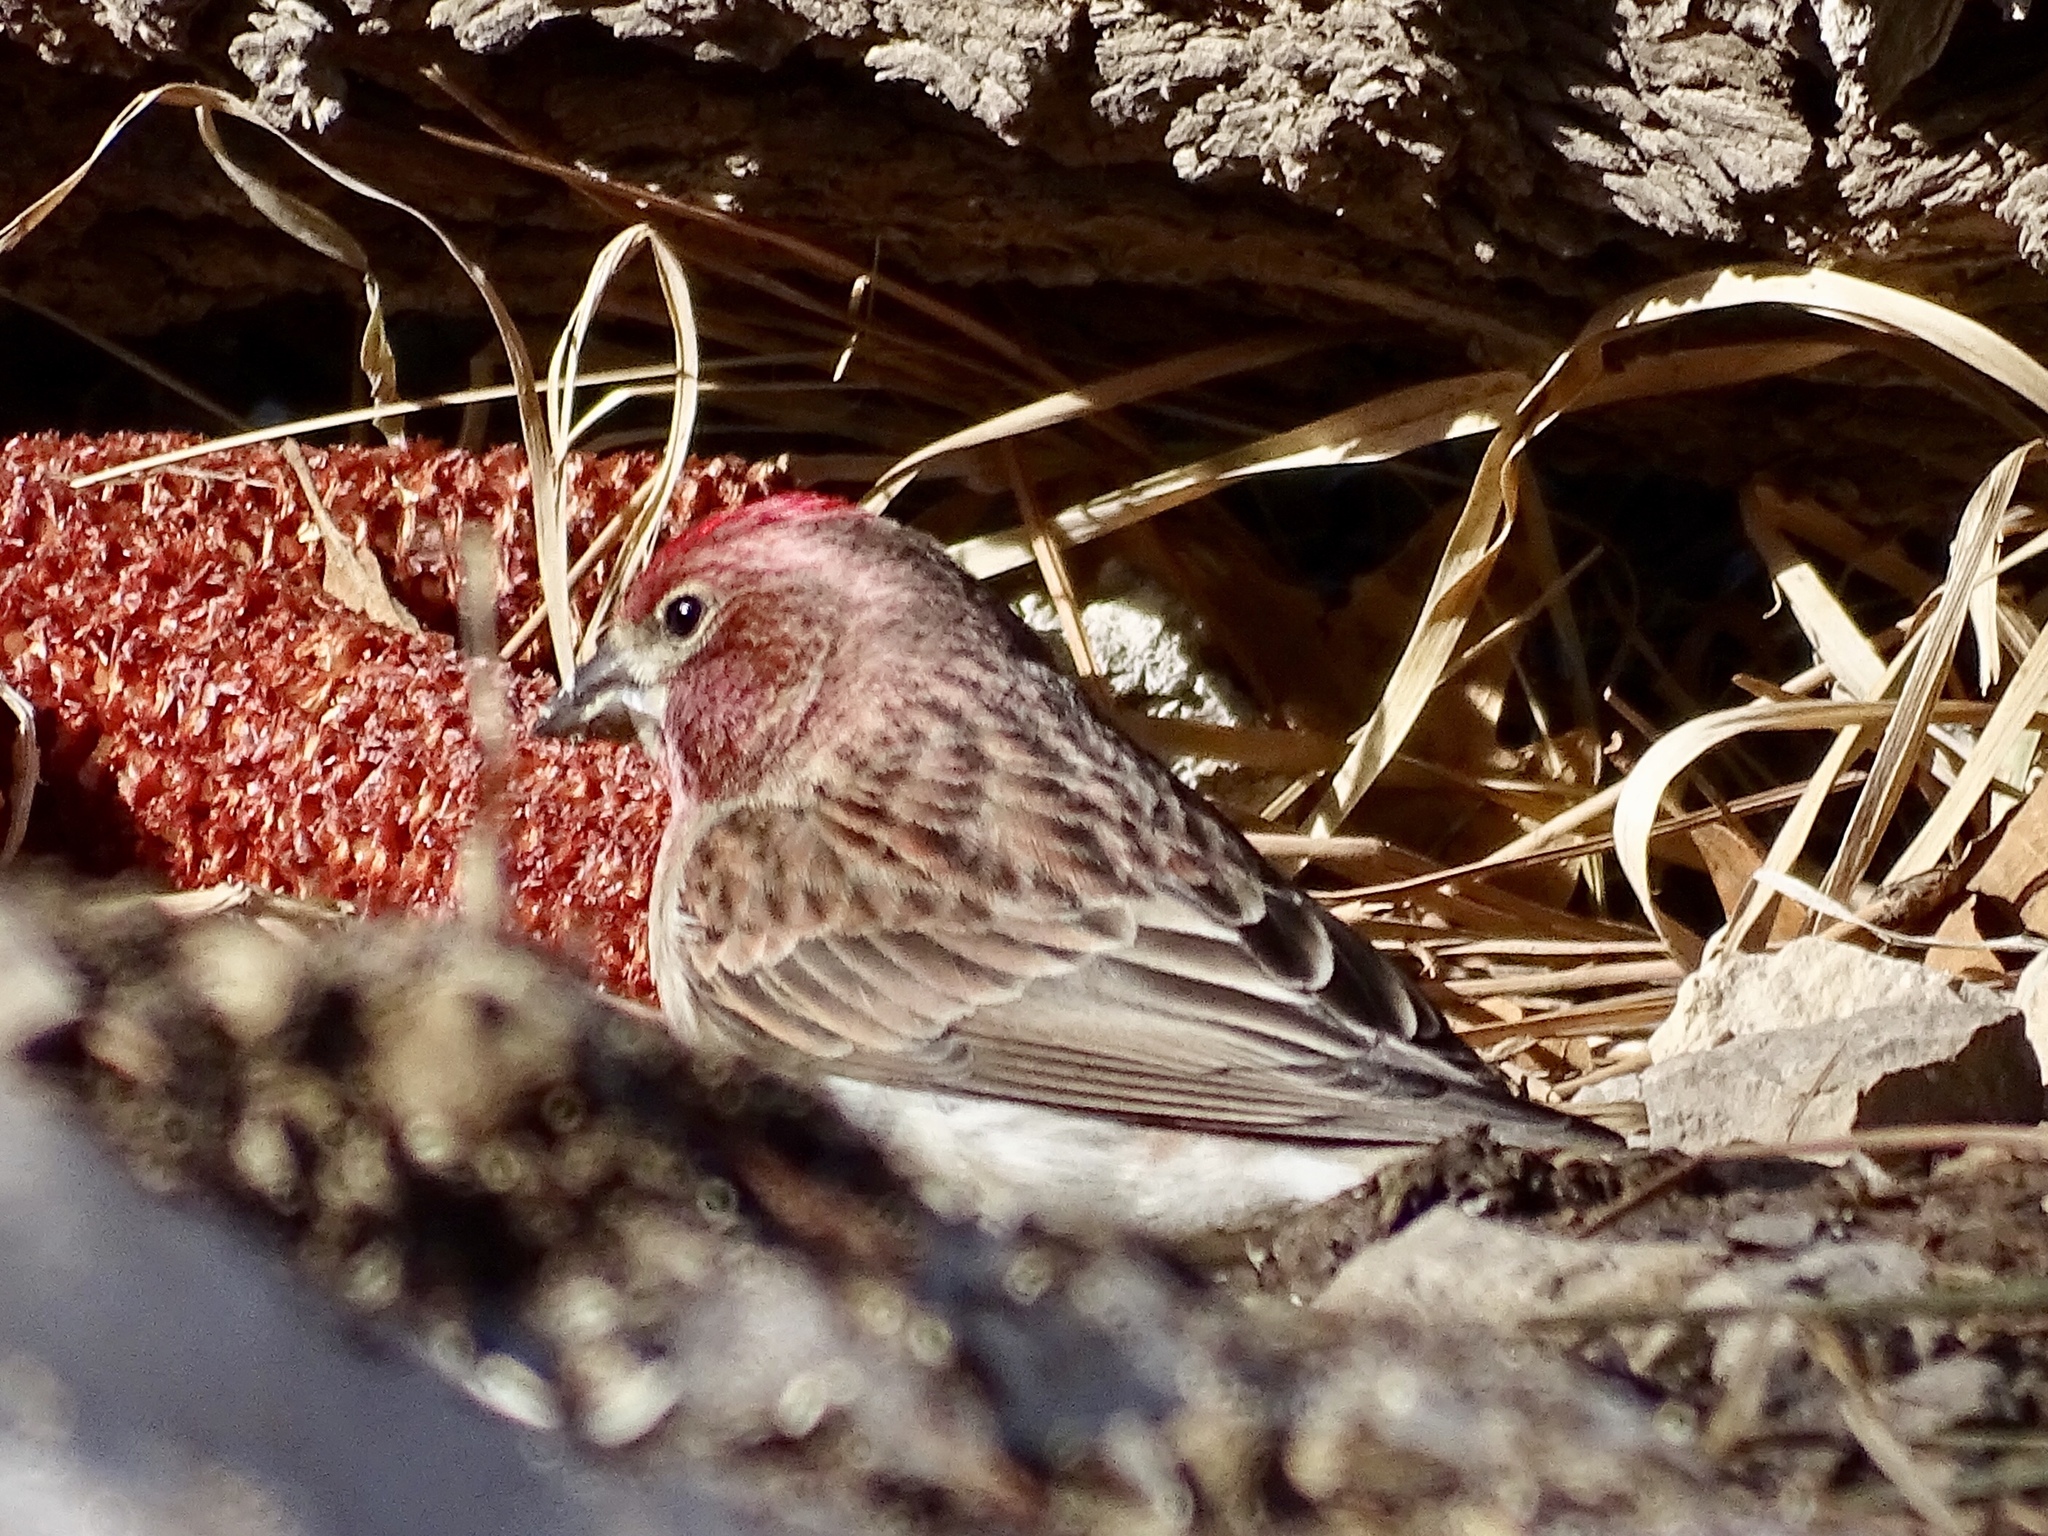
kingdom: Animalia
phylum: Chordata
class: Aves
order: Passeriformes
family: Fringillidae
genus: Haemorhous
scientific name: Haemorhous cassinii
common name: Cassin's finch
